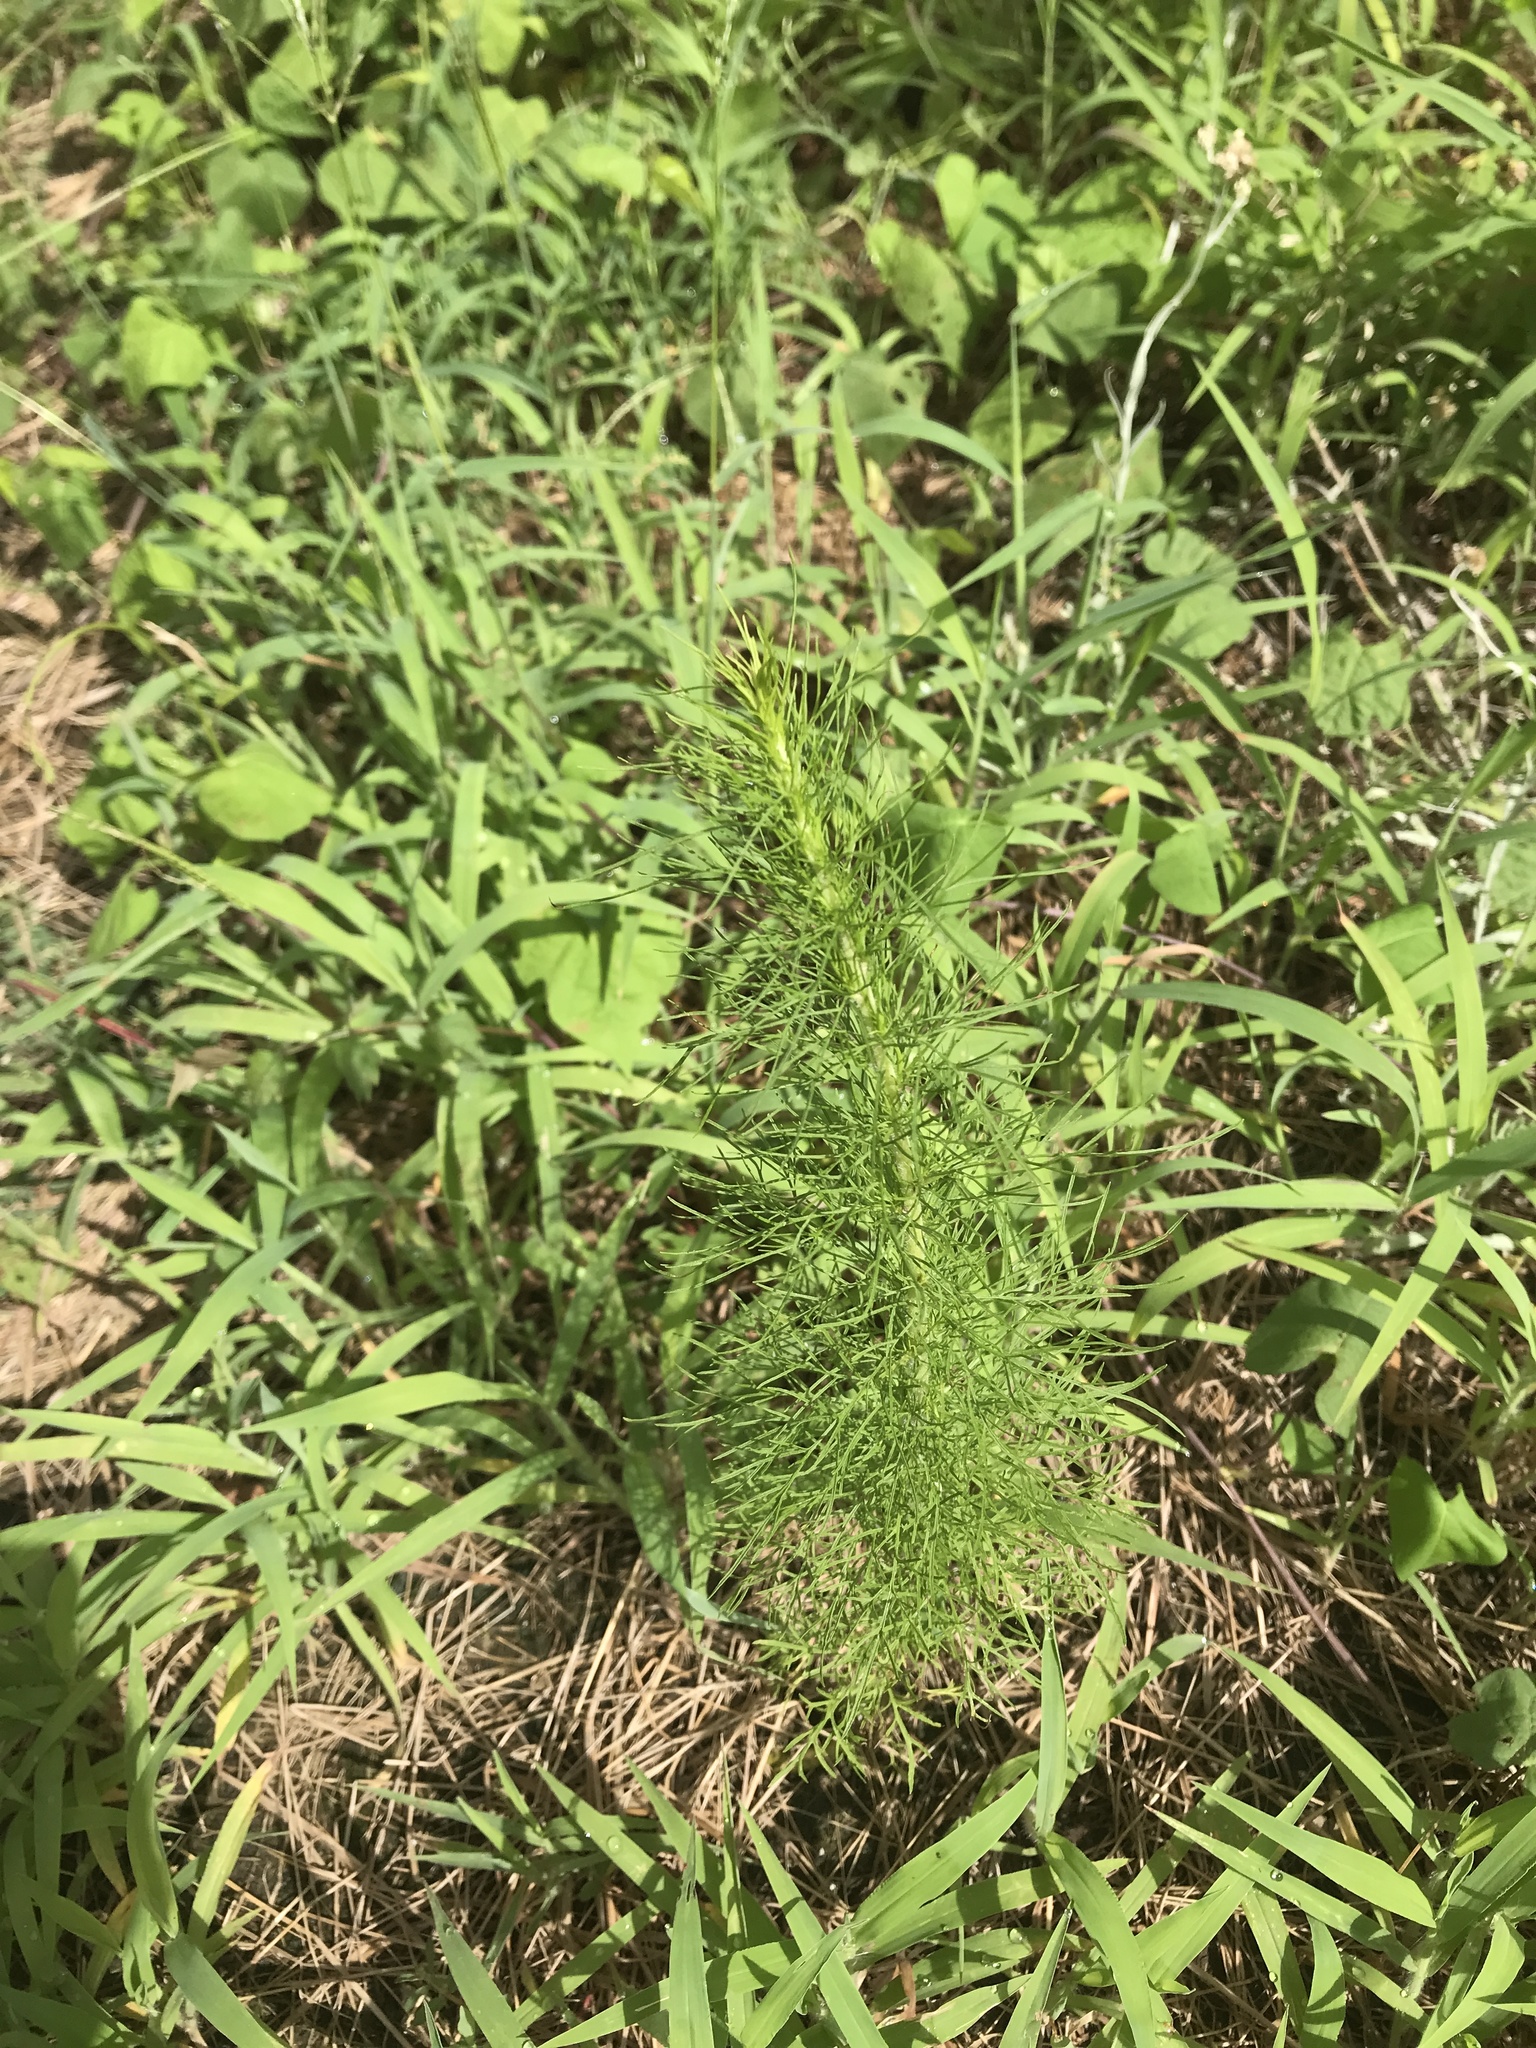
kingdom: Plantae
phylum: Tracheophyta
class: Magnoliopsida
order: Asterales
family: Asteraceae
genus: Helenium
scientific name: Helenium amarum
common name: Bitter sneezeweed
